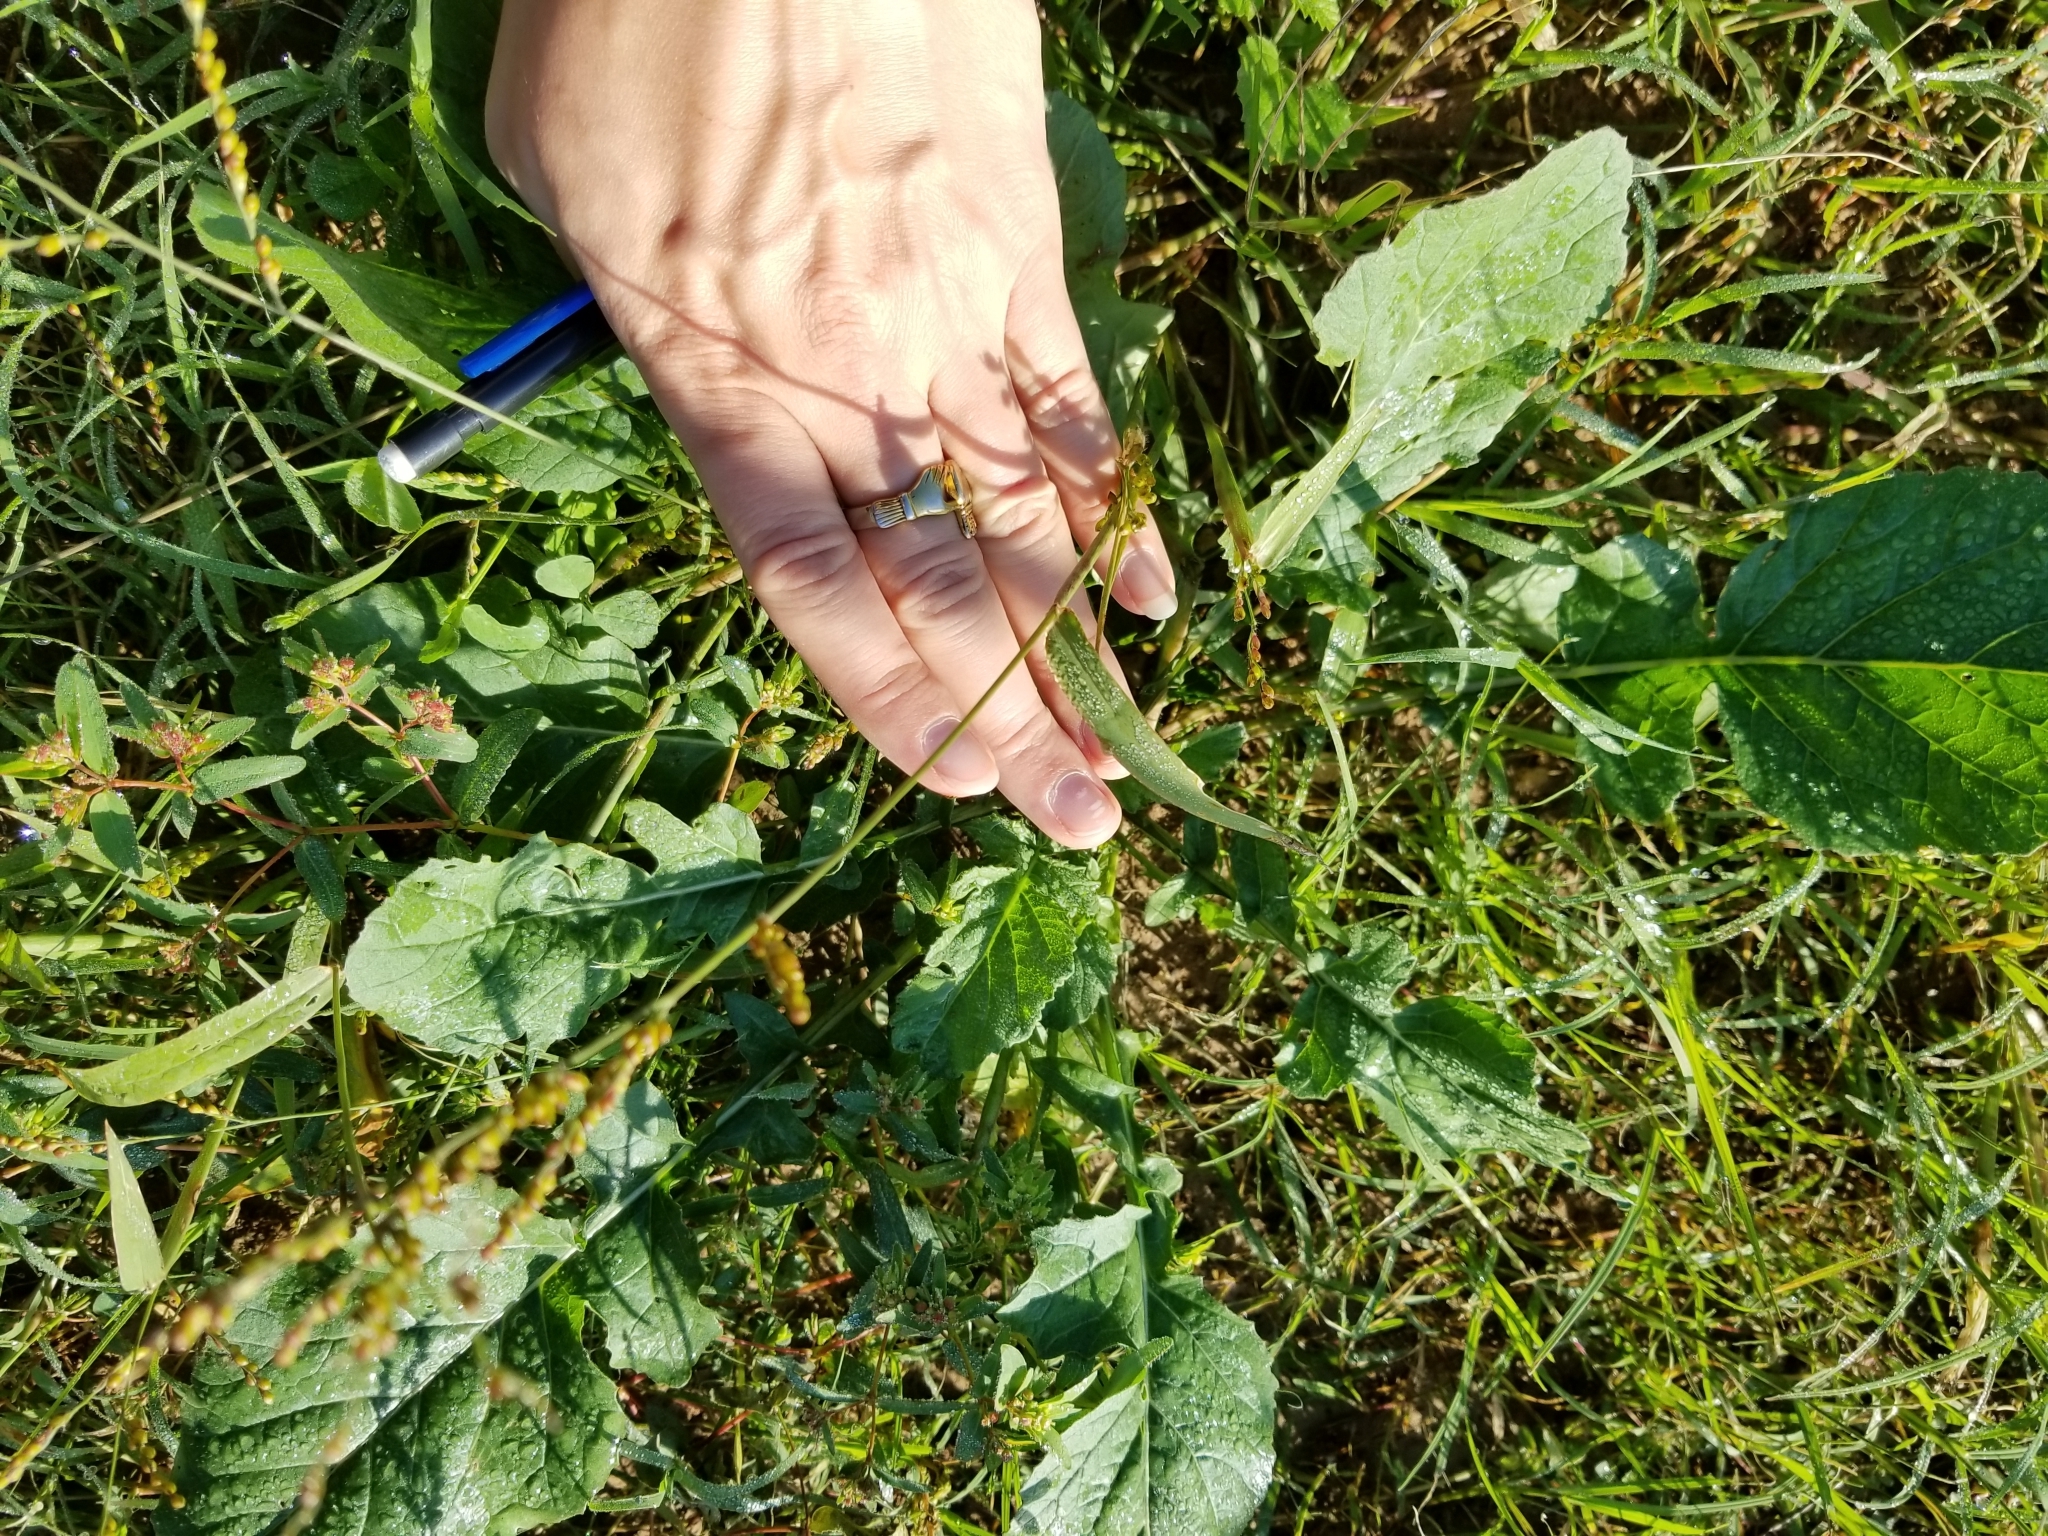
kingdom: Plantae
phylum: Tracheophyta
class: Liliopsida
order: Poales
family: Poaceae
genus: Urochloa
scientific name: Urochloa fusca
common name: Browntop signal grass
